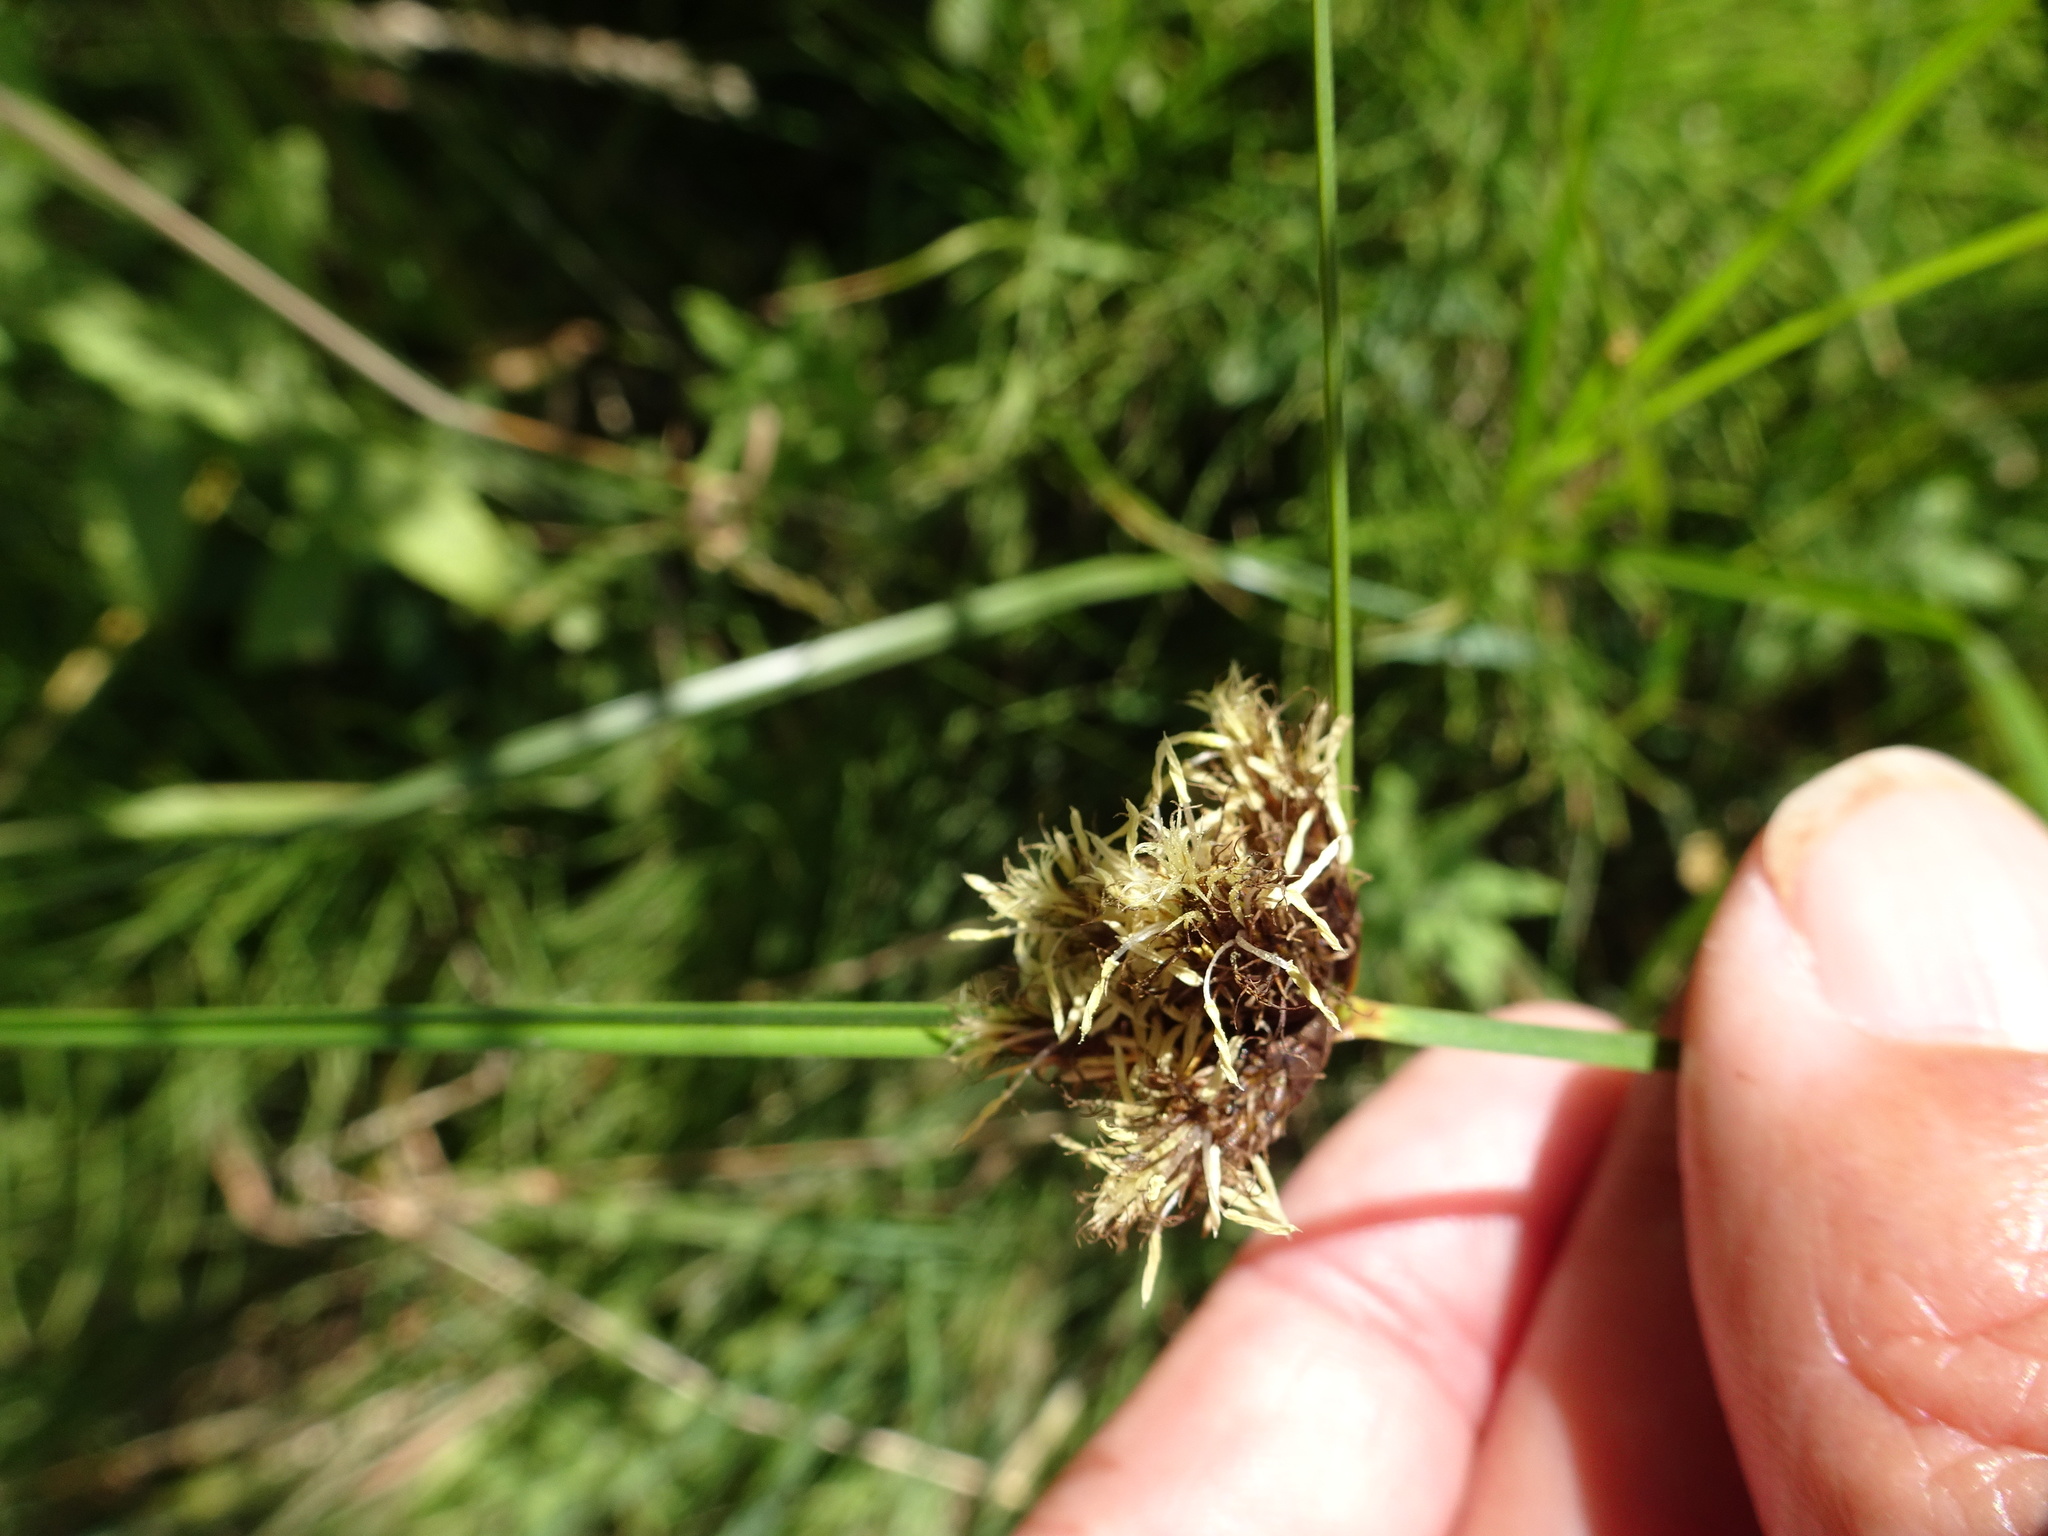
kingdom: Plantae
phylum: Tracheophyta
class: Liliopsida
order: Poales
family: Cyperaceae
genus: Bolboschoenus
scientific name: Bolboschoenus maritimus
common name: Sea club-rush
